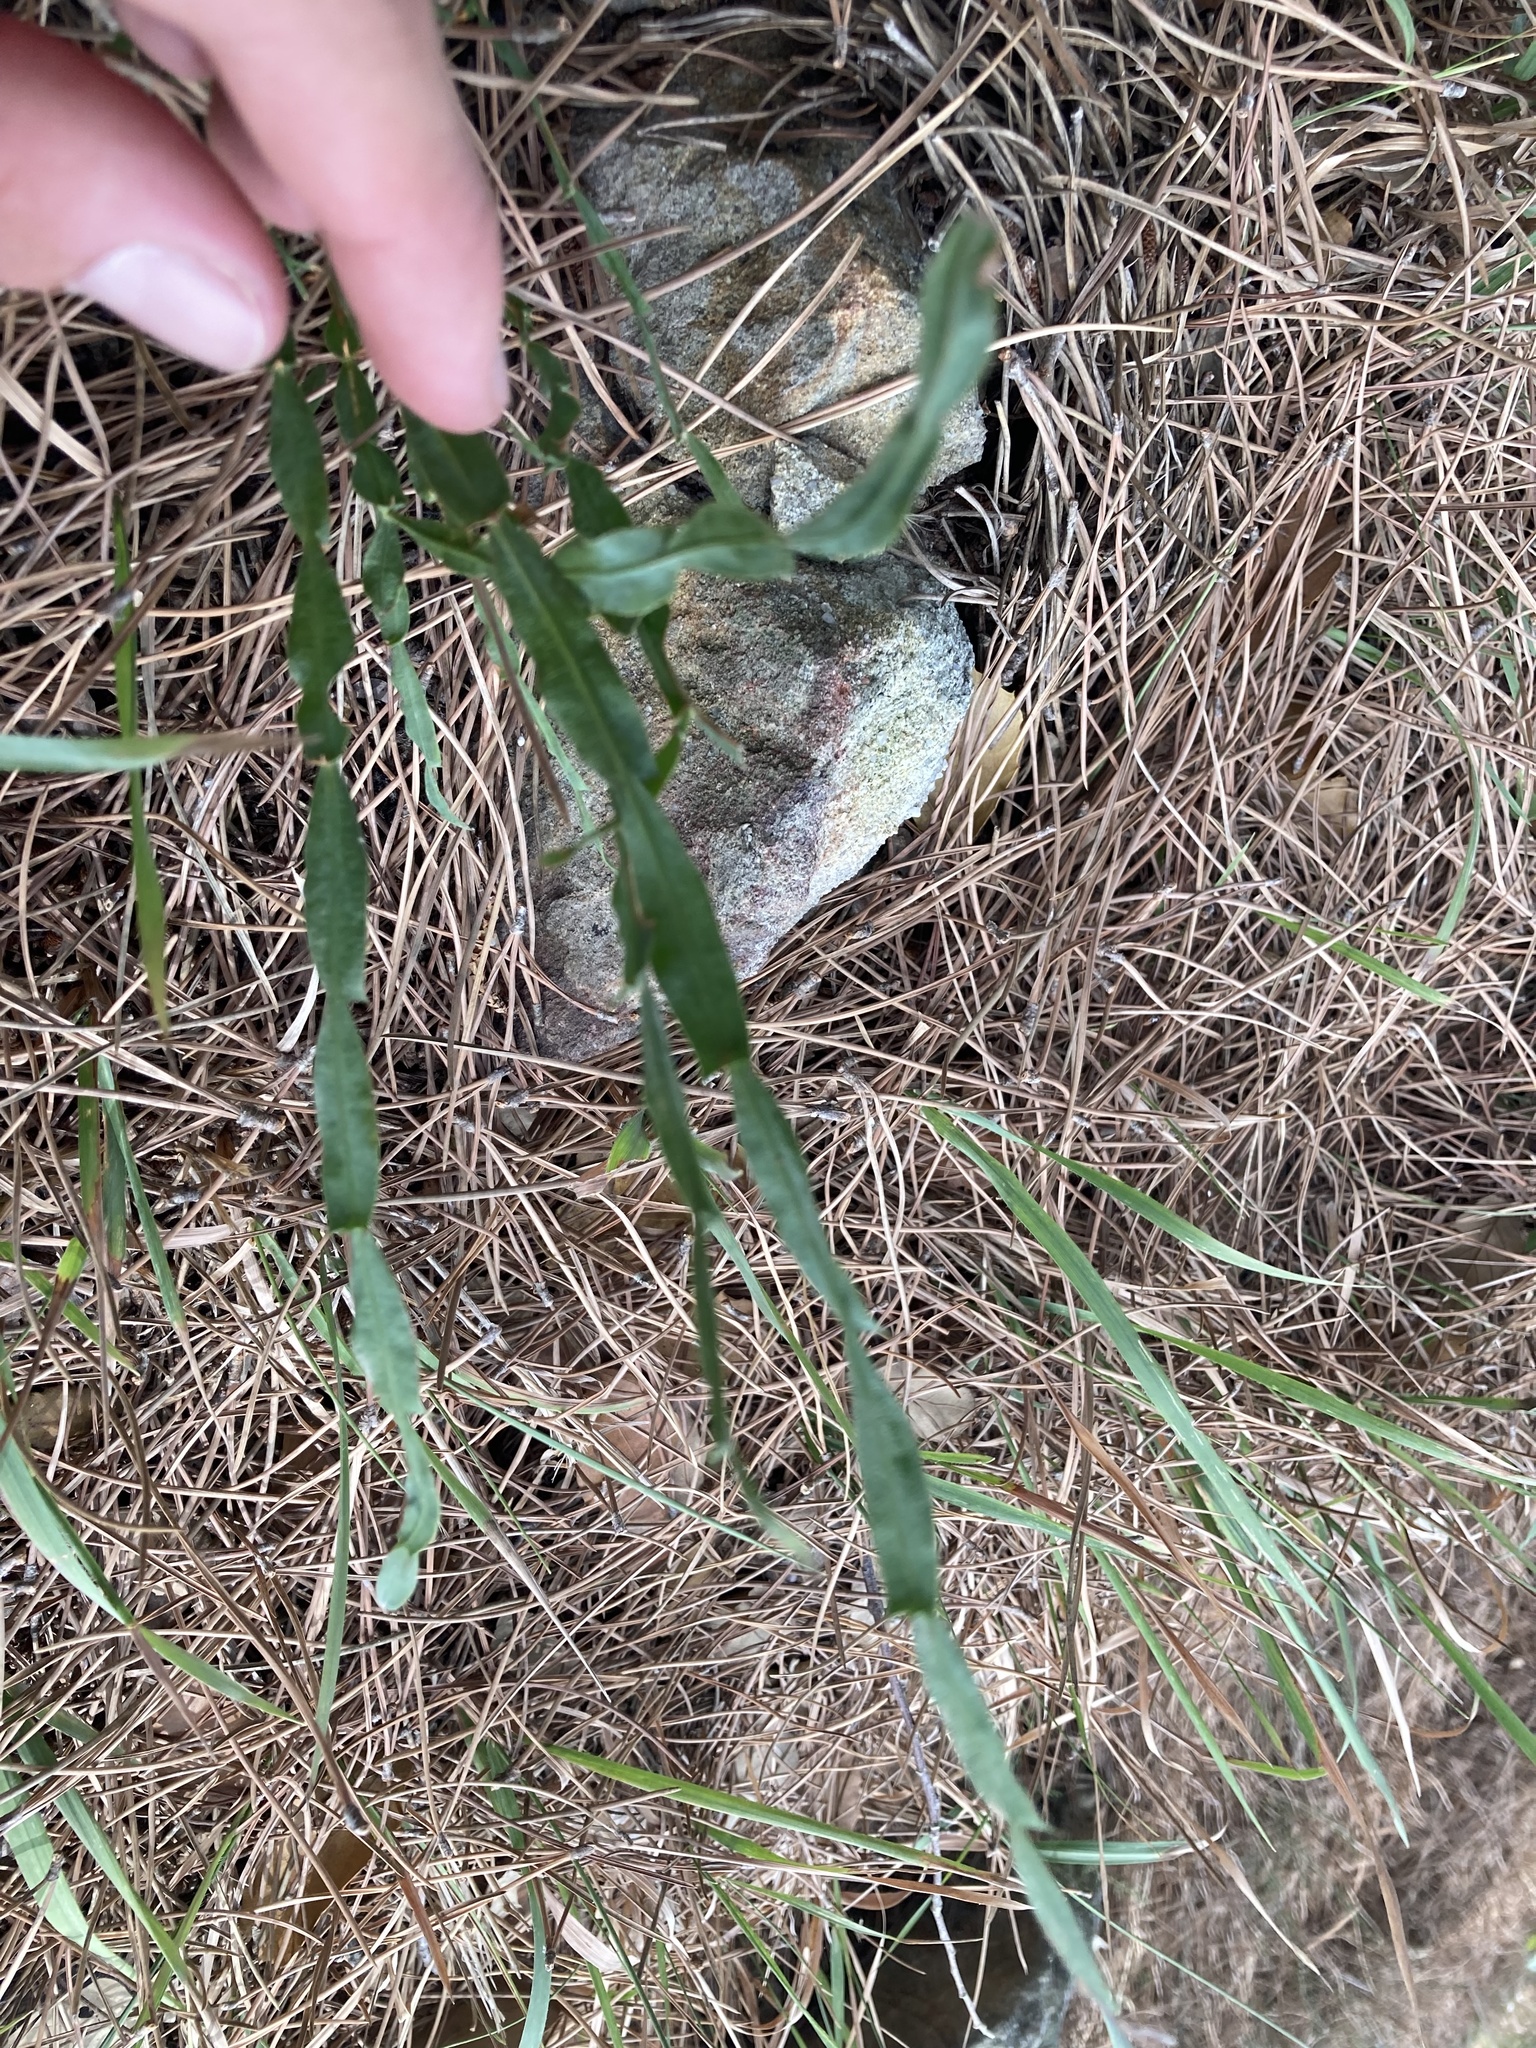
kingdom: Plantae
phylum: Tracheophyta
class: Magnoliopsida
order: Fabales
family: Fabaceae
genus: Genista
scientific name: Genista tridentata
